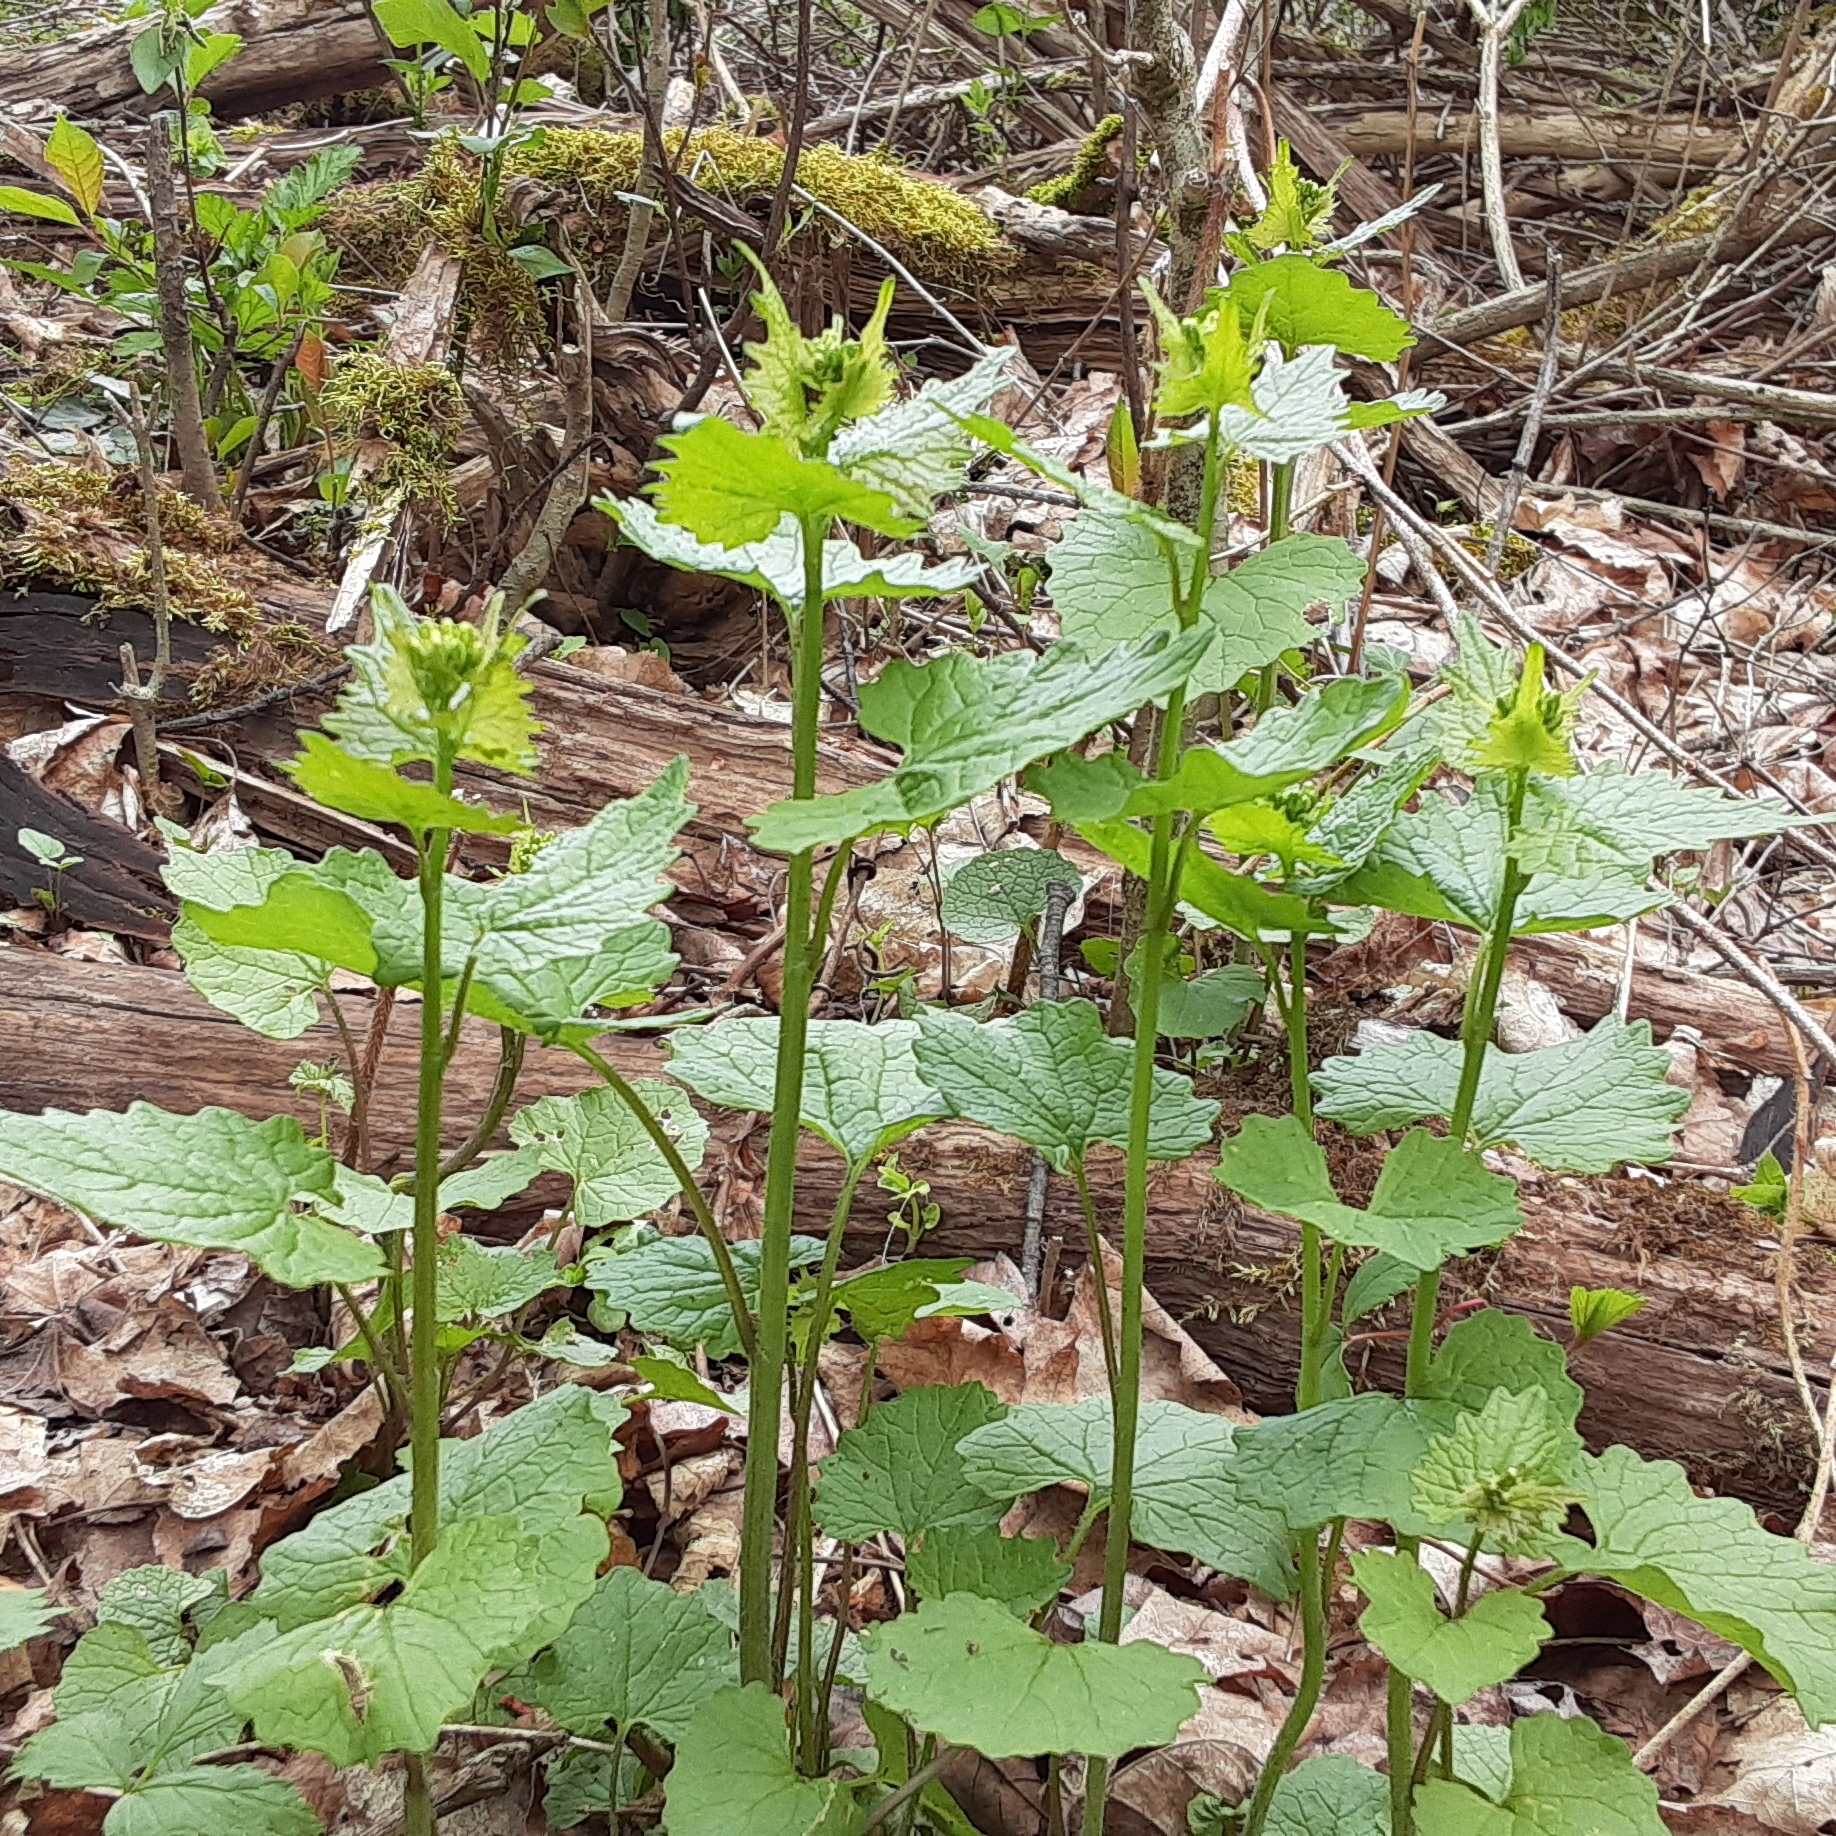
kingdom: Plantae
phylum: Tracheophyta
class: Magnoliopsida
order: Brassicales
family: Brassicaceae
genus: Alliaria
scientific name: Alliaria petiolata
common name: Garlic mustard
